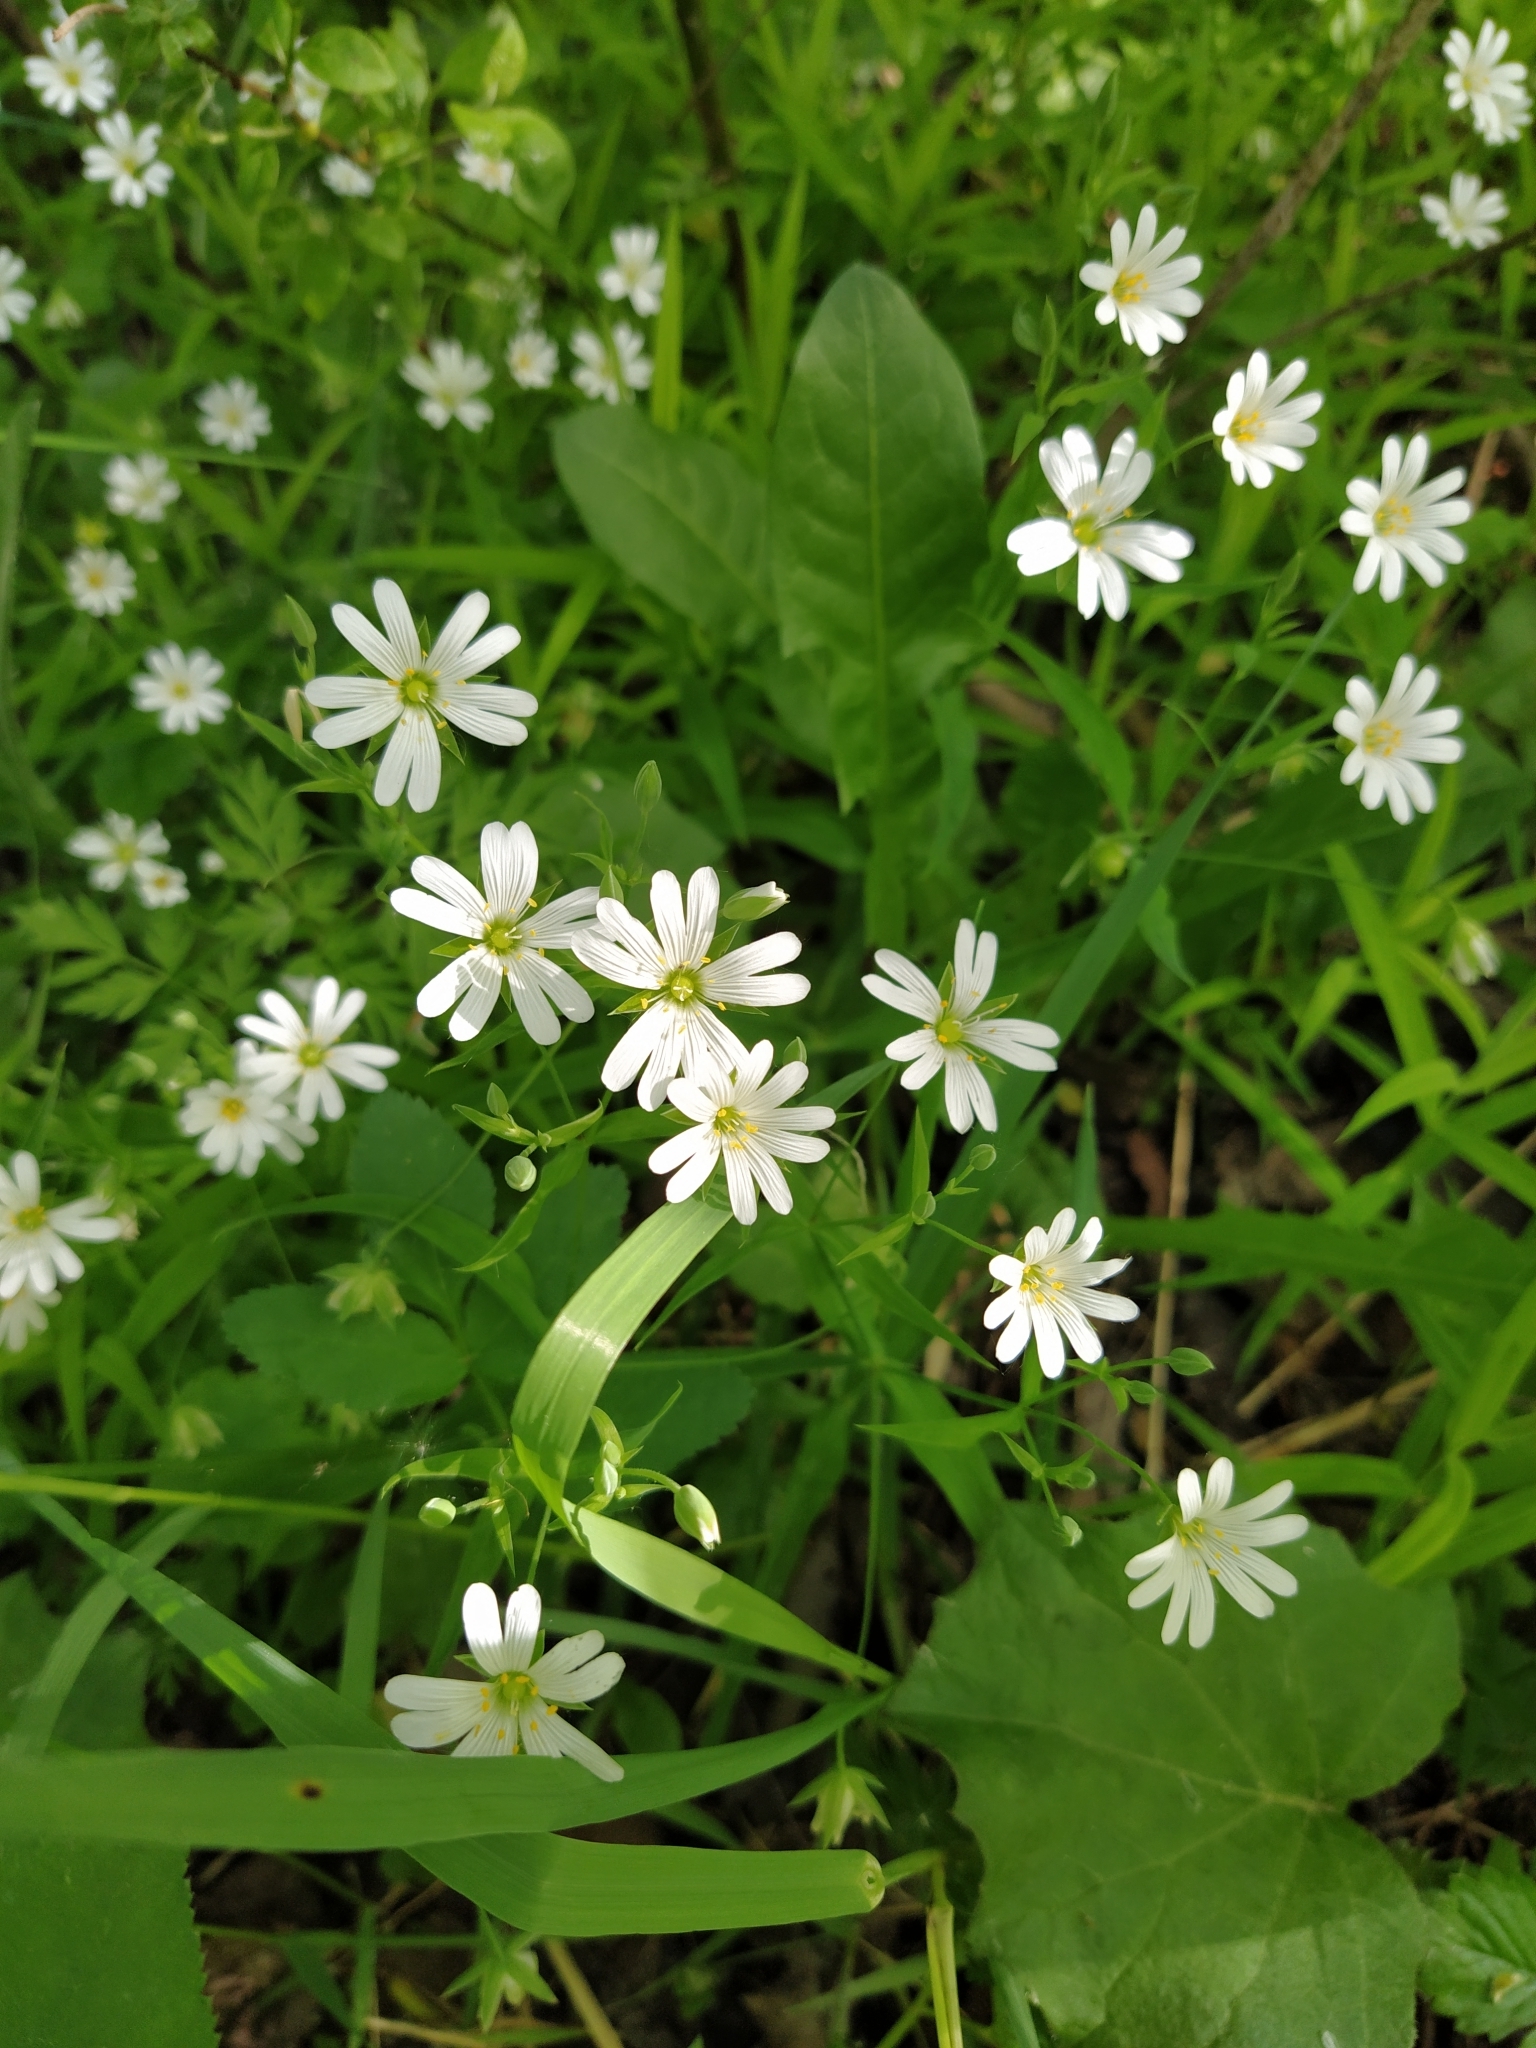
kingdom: Plantae
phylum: Tracheophyta
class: Magnoliopsida
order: Caryophyllales
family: Caryophyllaceae
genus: Rabelera
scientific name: Rabelera holostea
